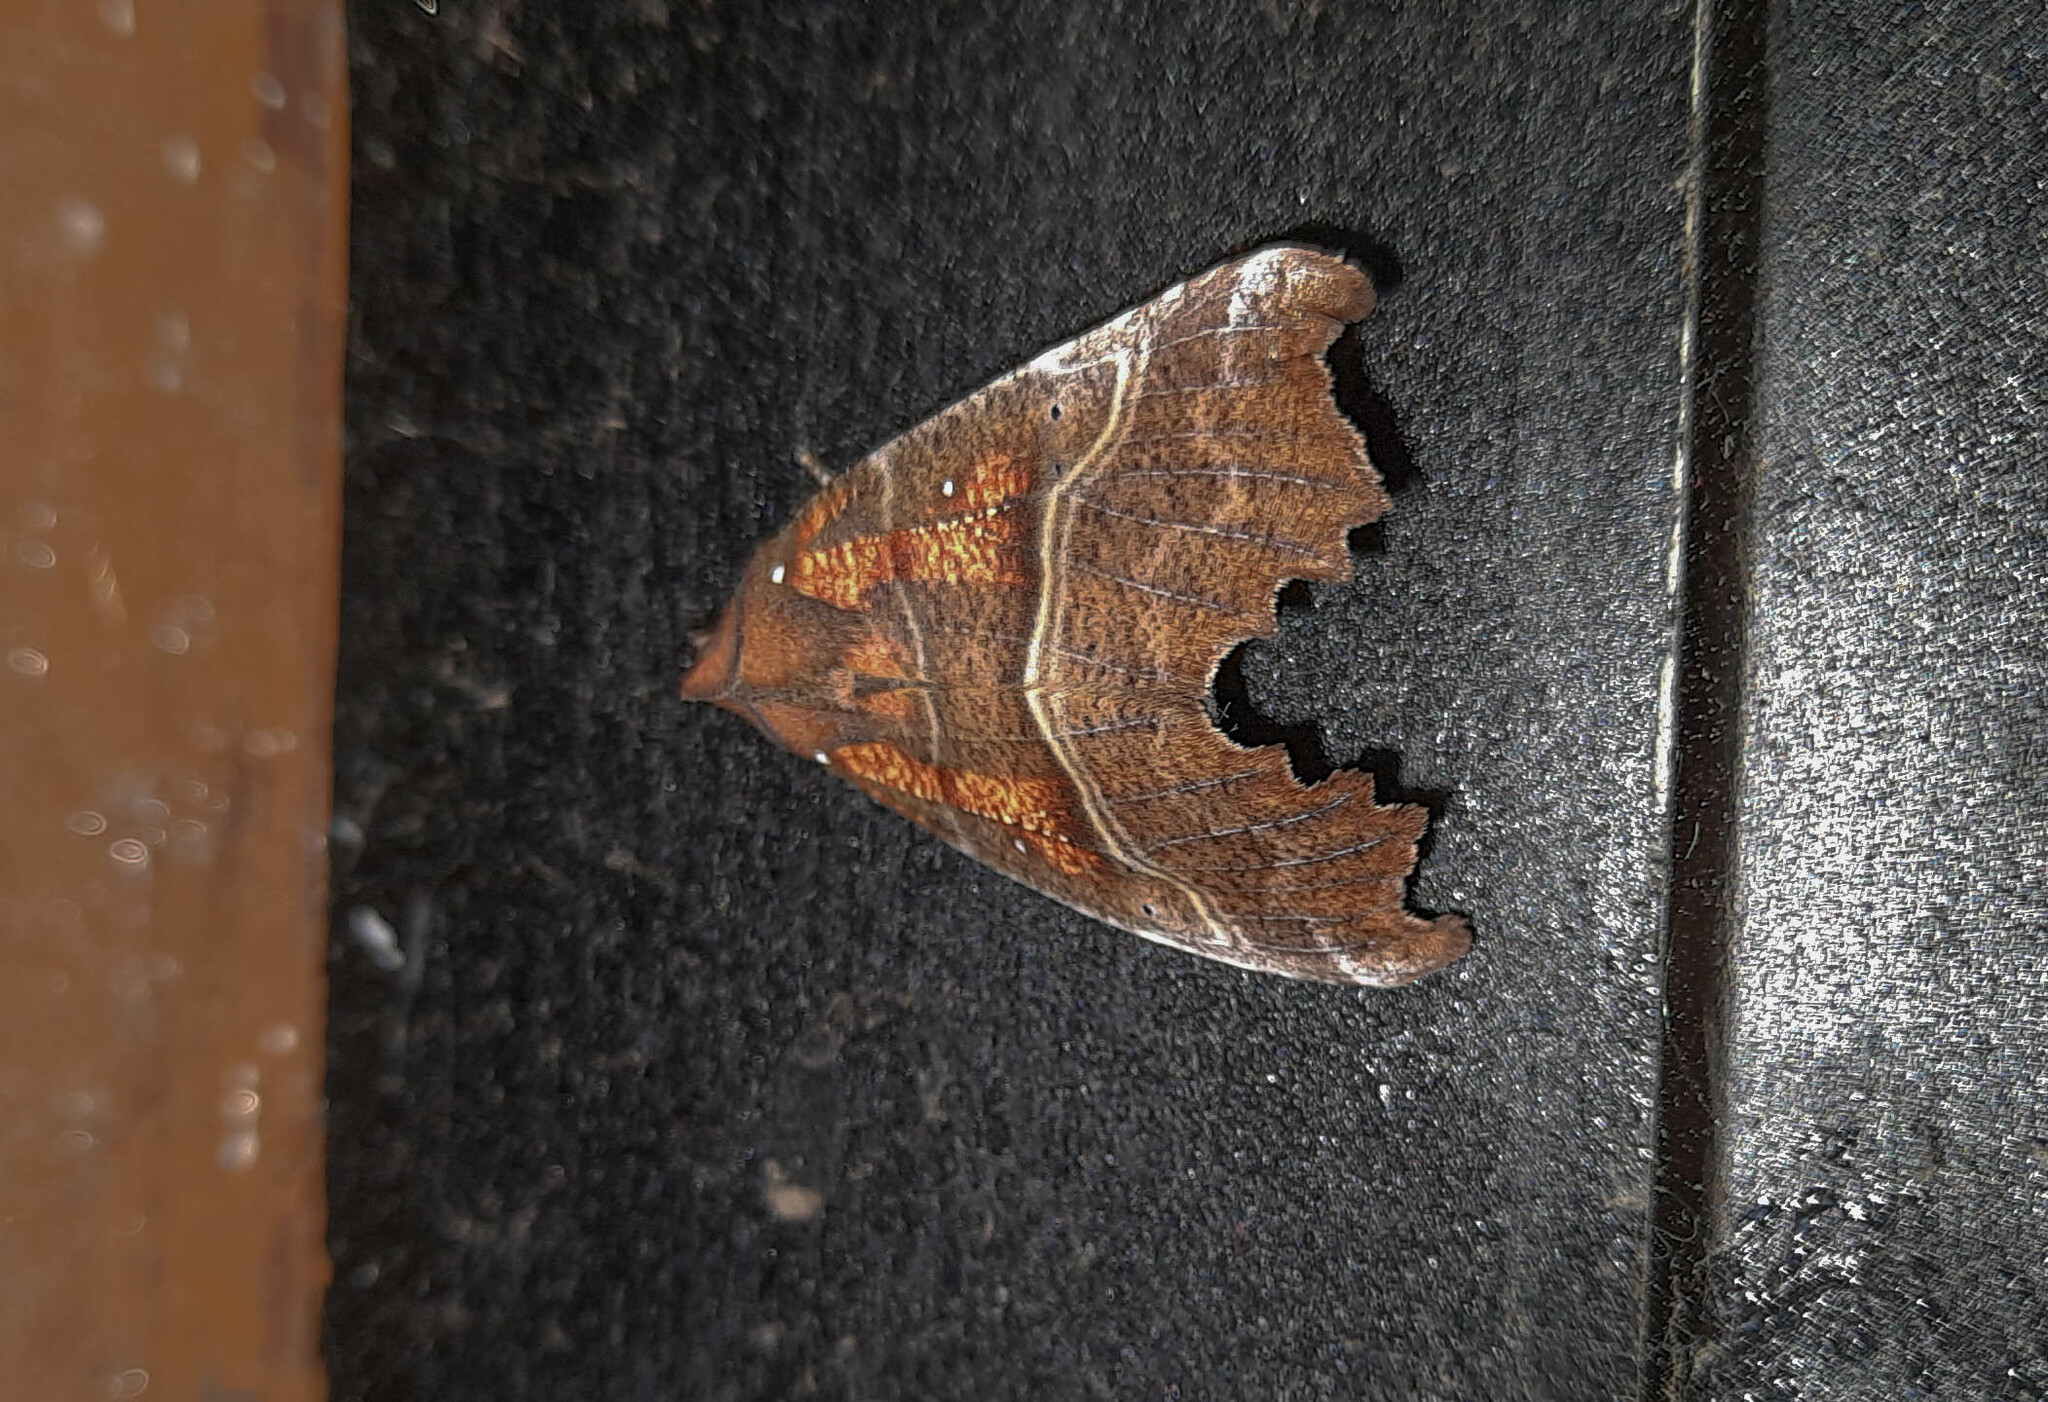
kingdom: Animalia
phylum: Arthropoda
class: Insecta
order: Lepidoptera
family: Erebidae
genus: Scoliopteryx
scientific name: Scoliopteryx libatrix
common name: Herald
